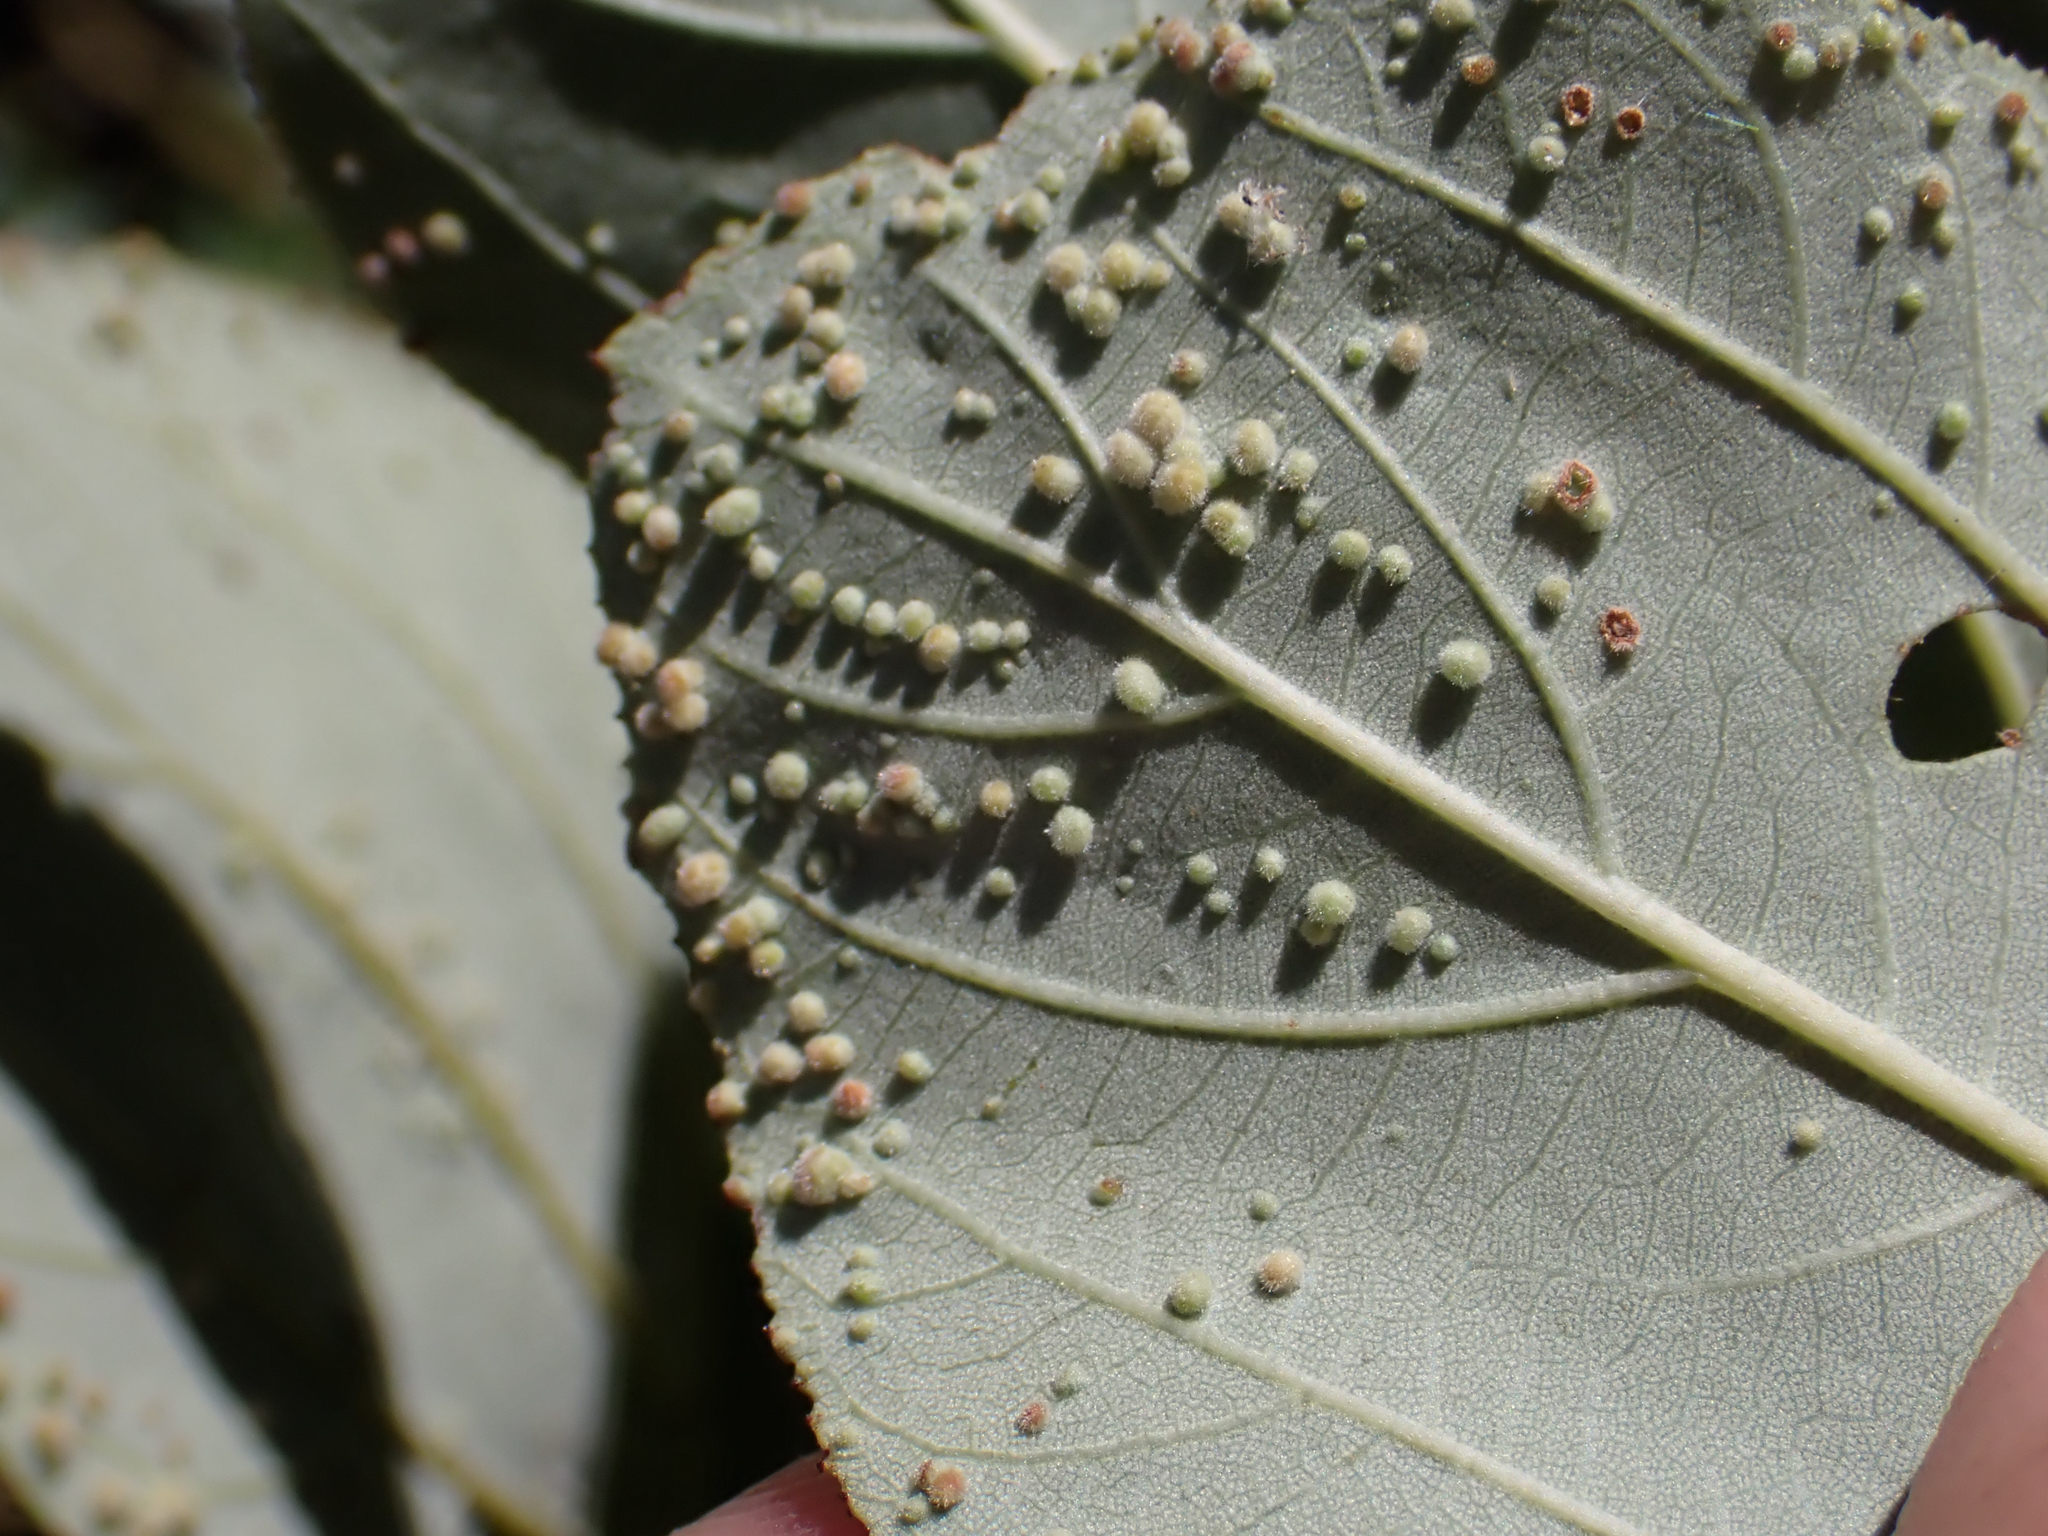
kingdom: Animalia
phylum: Arthropoda
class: Arachnida
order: Trombidiformes
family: Eriophyidae
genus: Aceria
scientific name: Aceria
